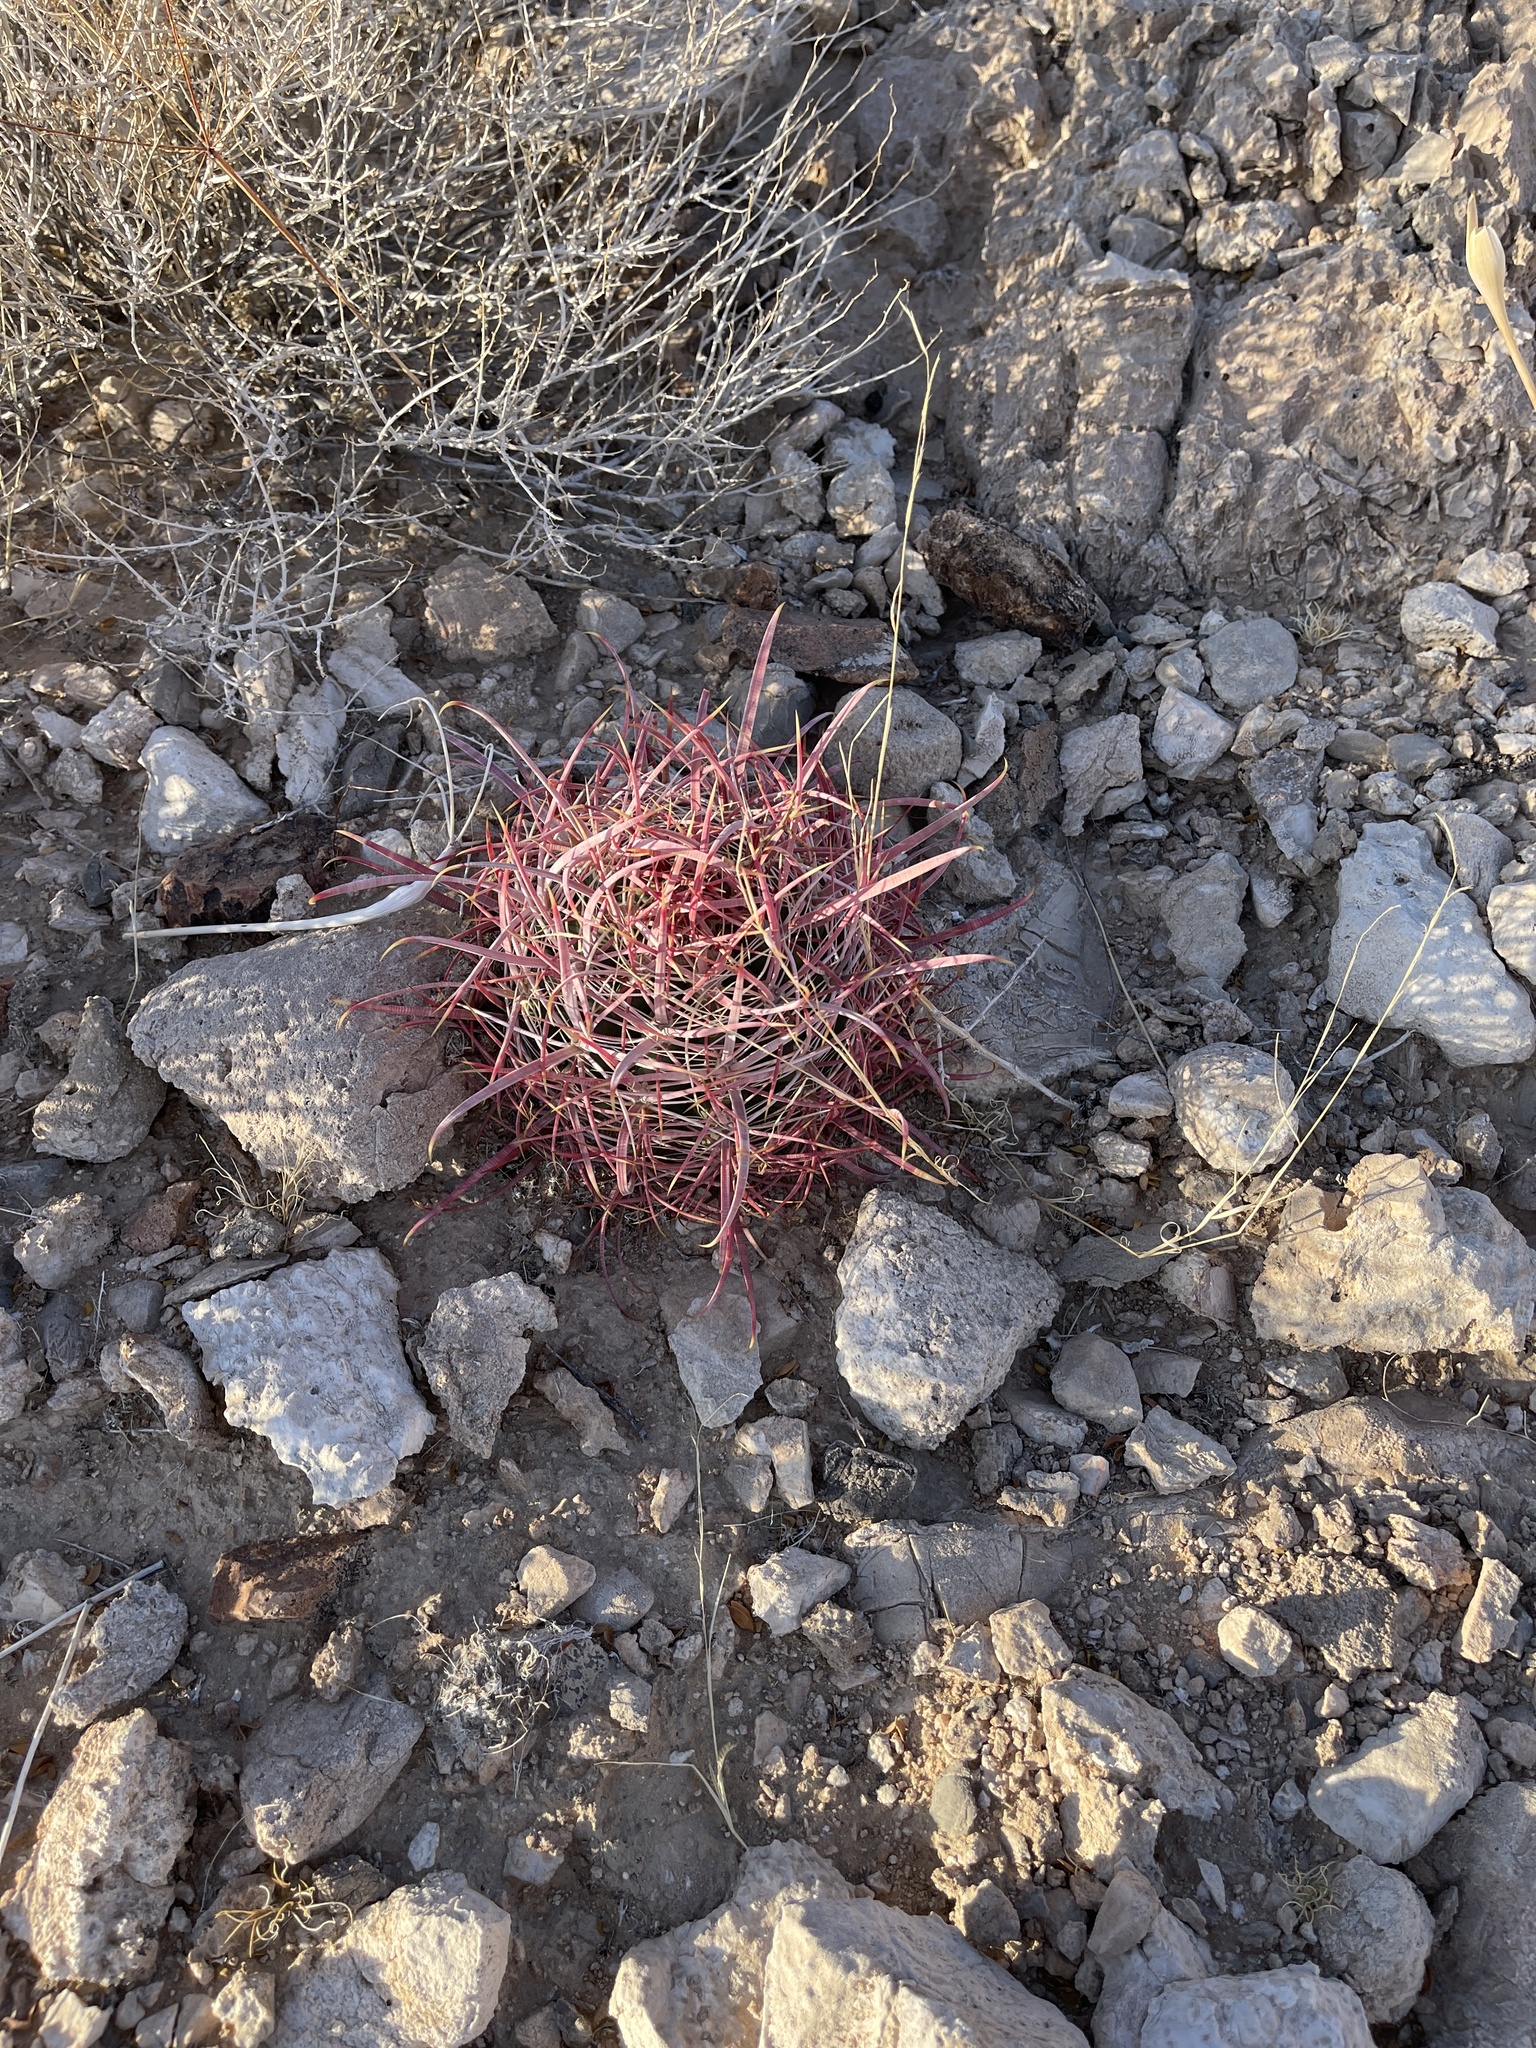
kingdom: Plantae
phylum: Tracheophyta
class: Magnoliopsida
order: Caryophyllales
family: Cactaceae
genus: Ferocactus
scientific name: Ferocactus cylindraceus
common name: California barrel cactus
